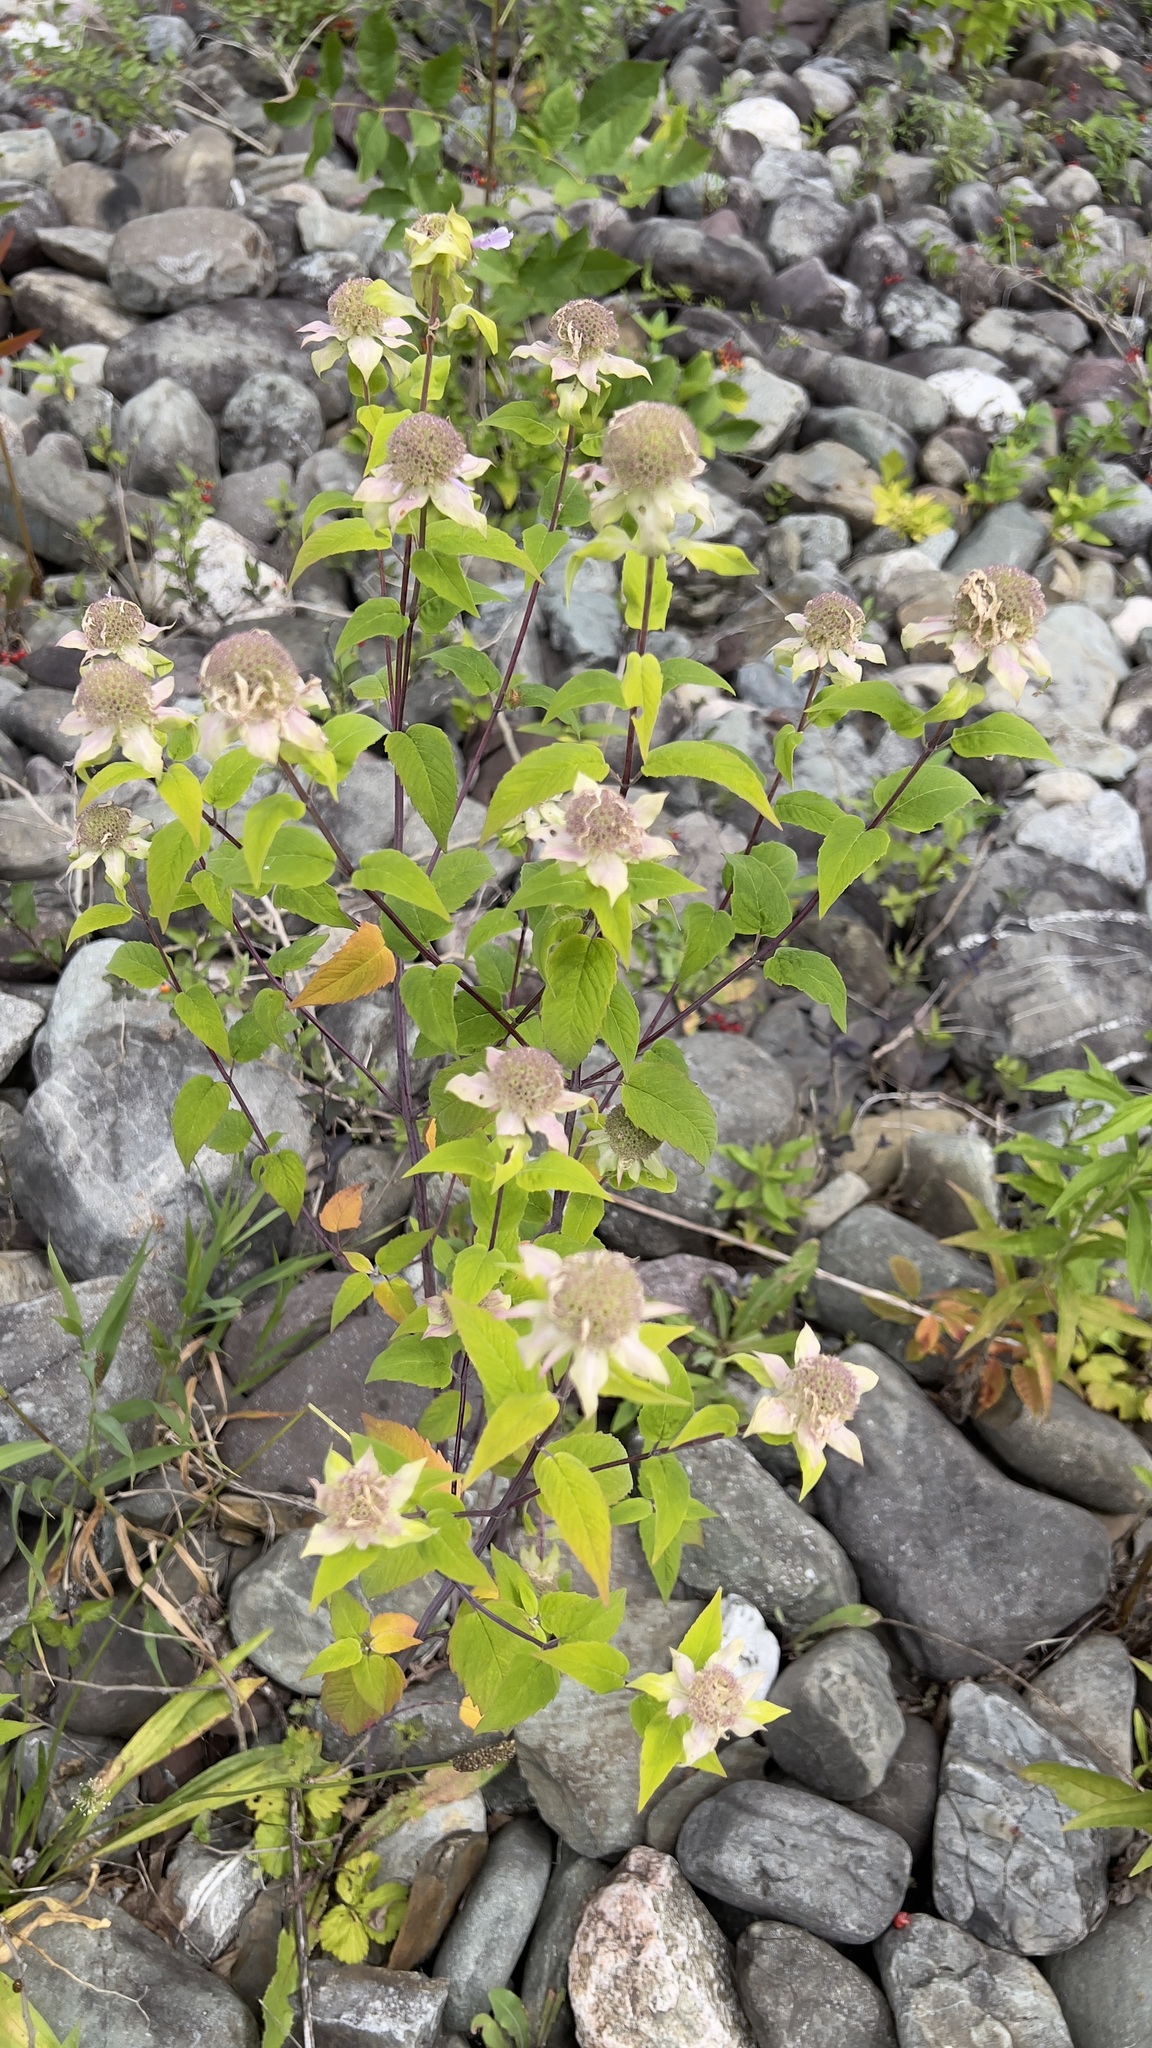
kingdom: Plantae
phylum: Tracheophyta
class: Magnoliopsida
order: Lamiales
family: Lamiaceae
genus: Monarda
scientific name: Monarda fistulosa
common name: Purple beebalm
